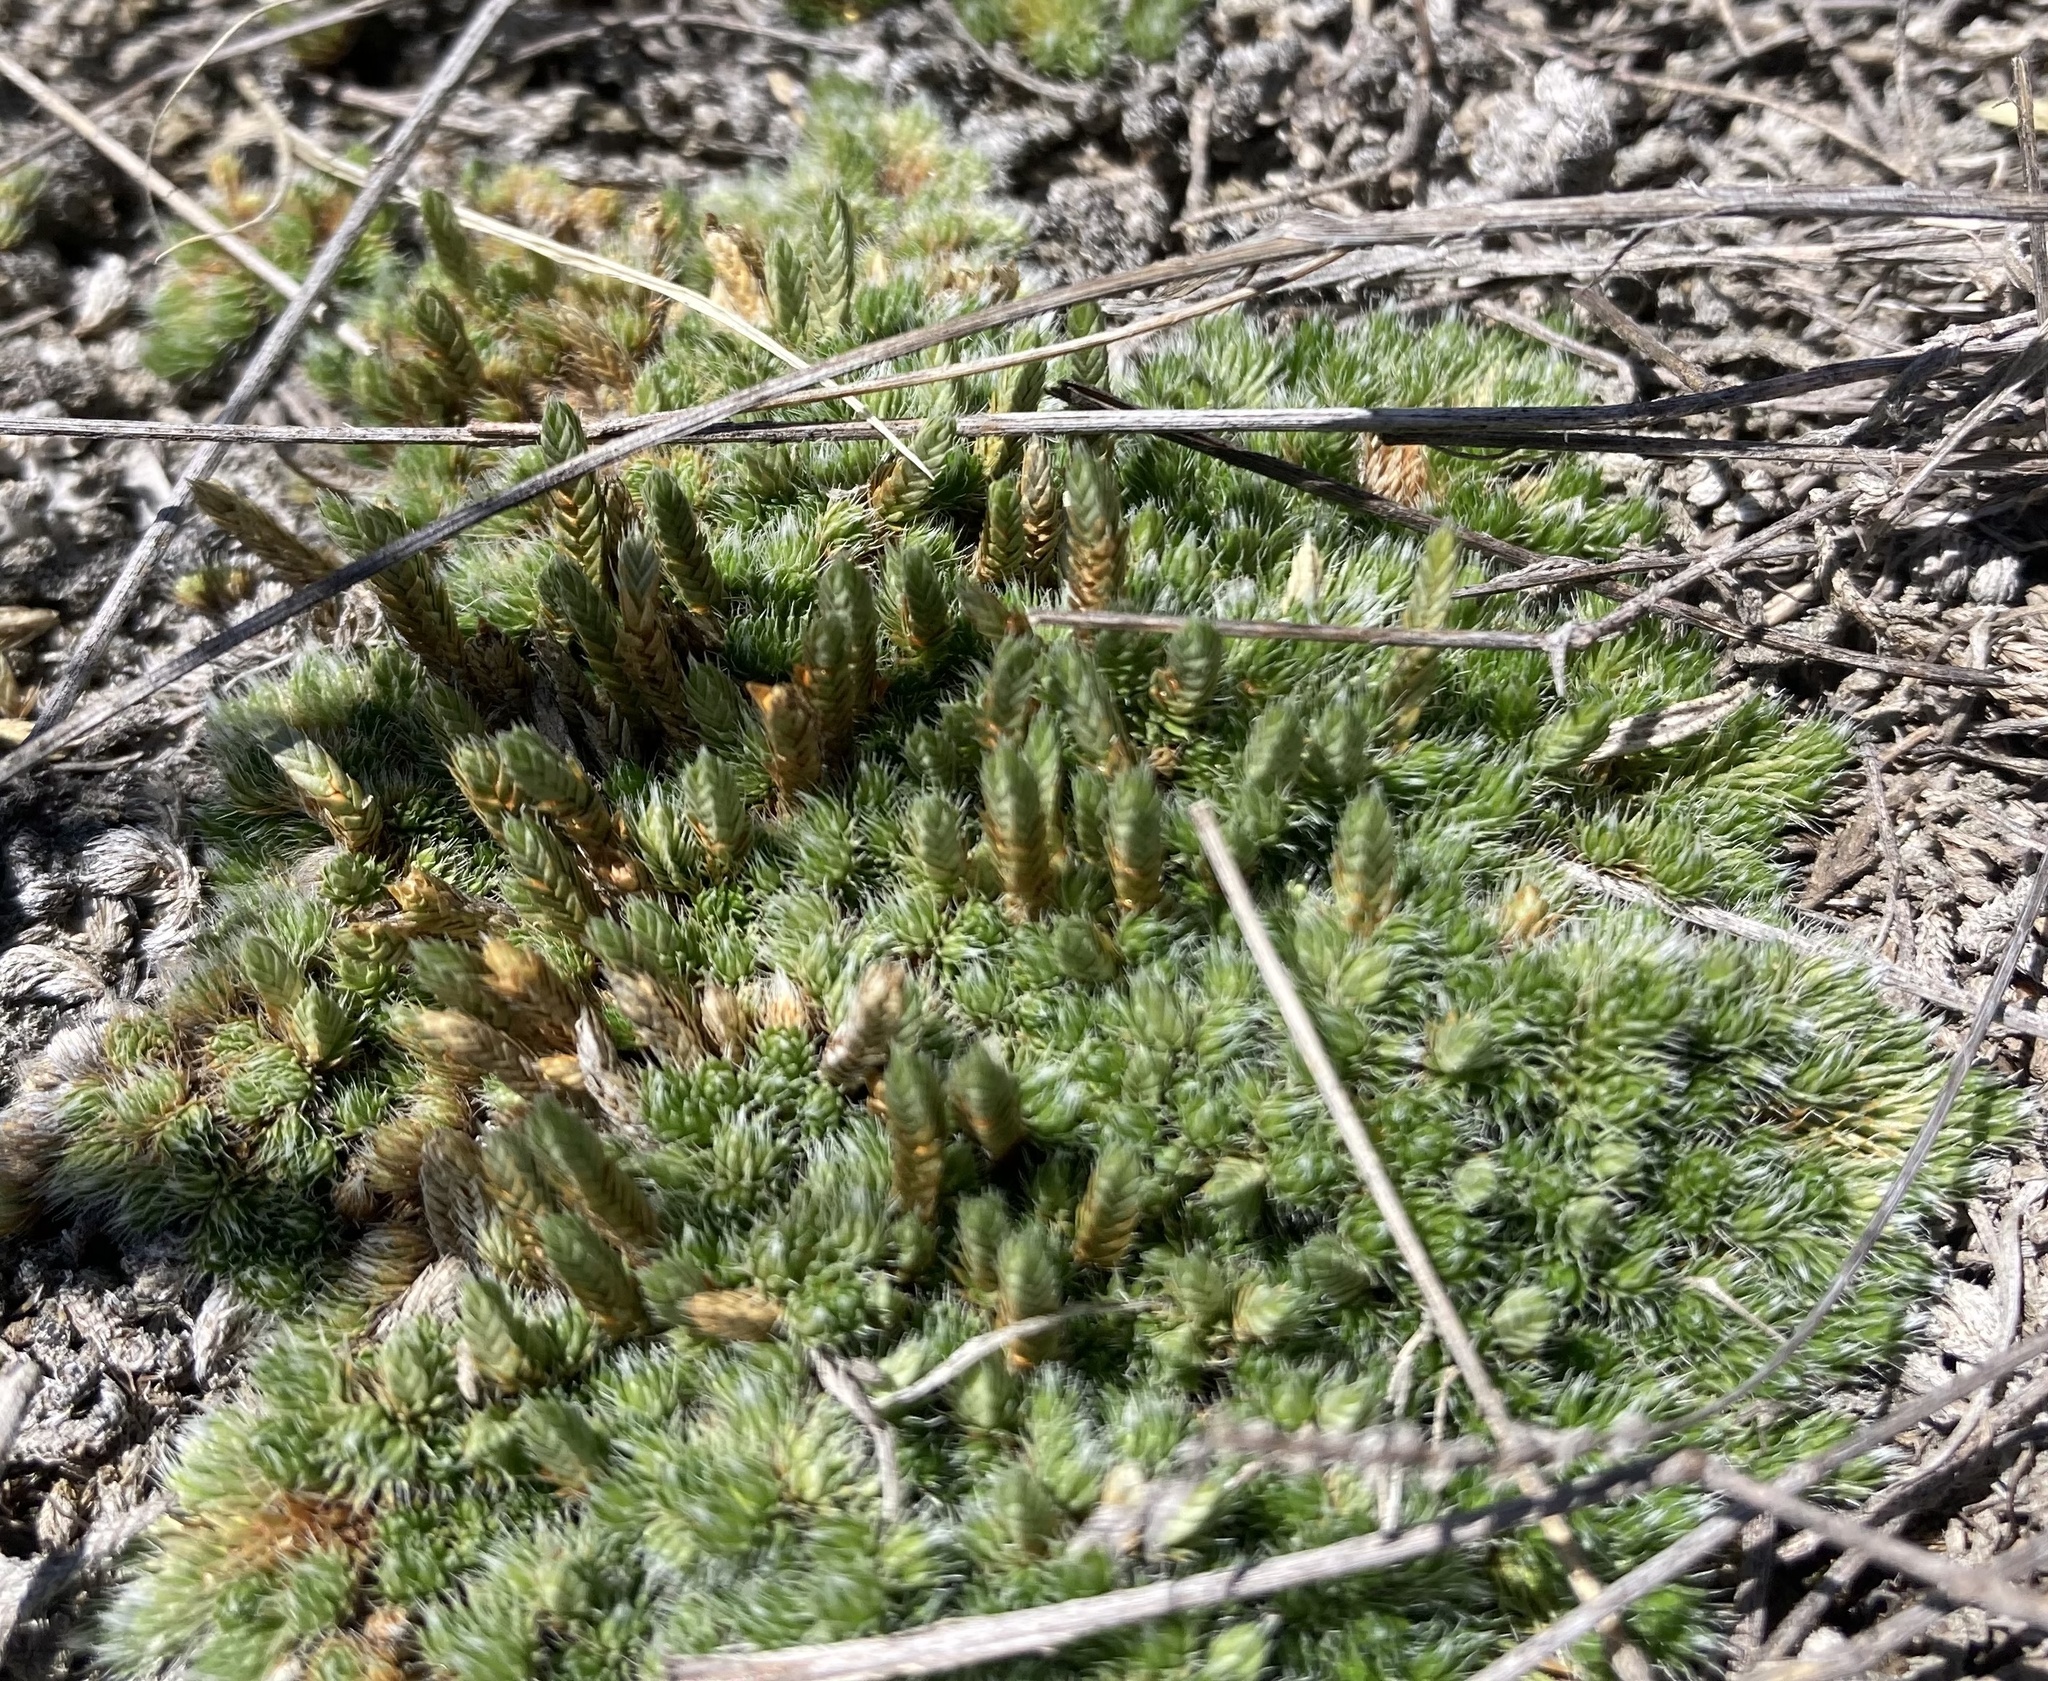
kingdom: Plantae
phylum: Tracheophyta
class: Lycopodiopsida
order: Selaginellales
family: Selaginellaceae
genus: Selaginella
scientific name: Selaginella densa
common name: Mountain spike-moss
